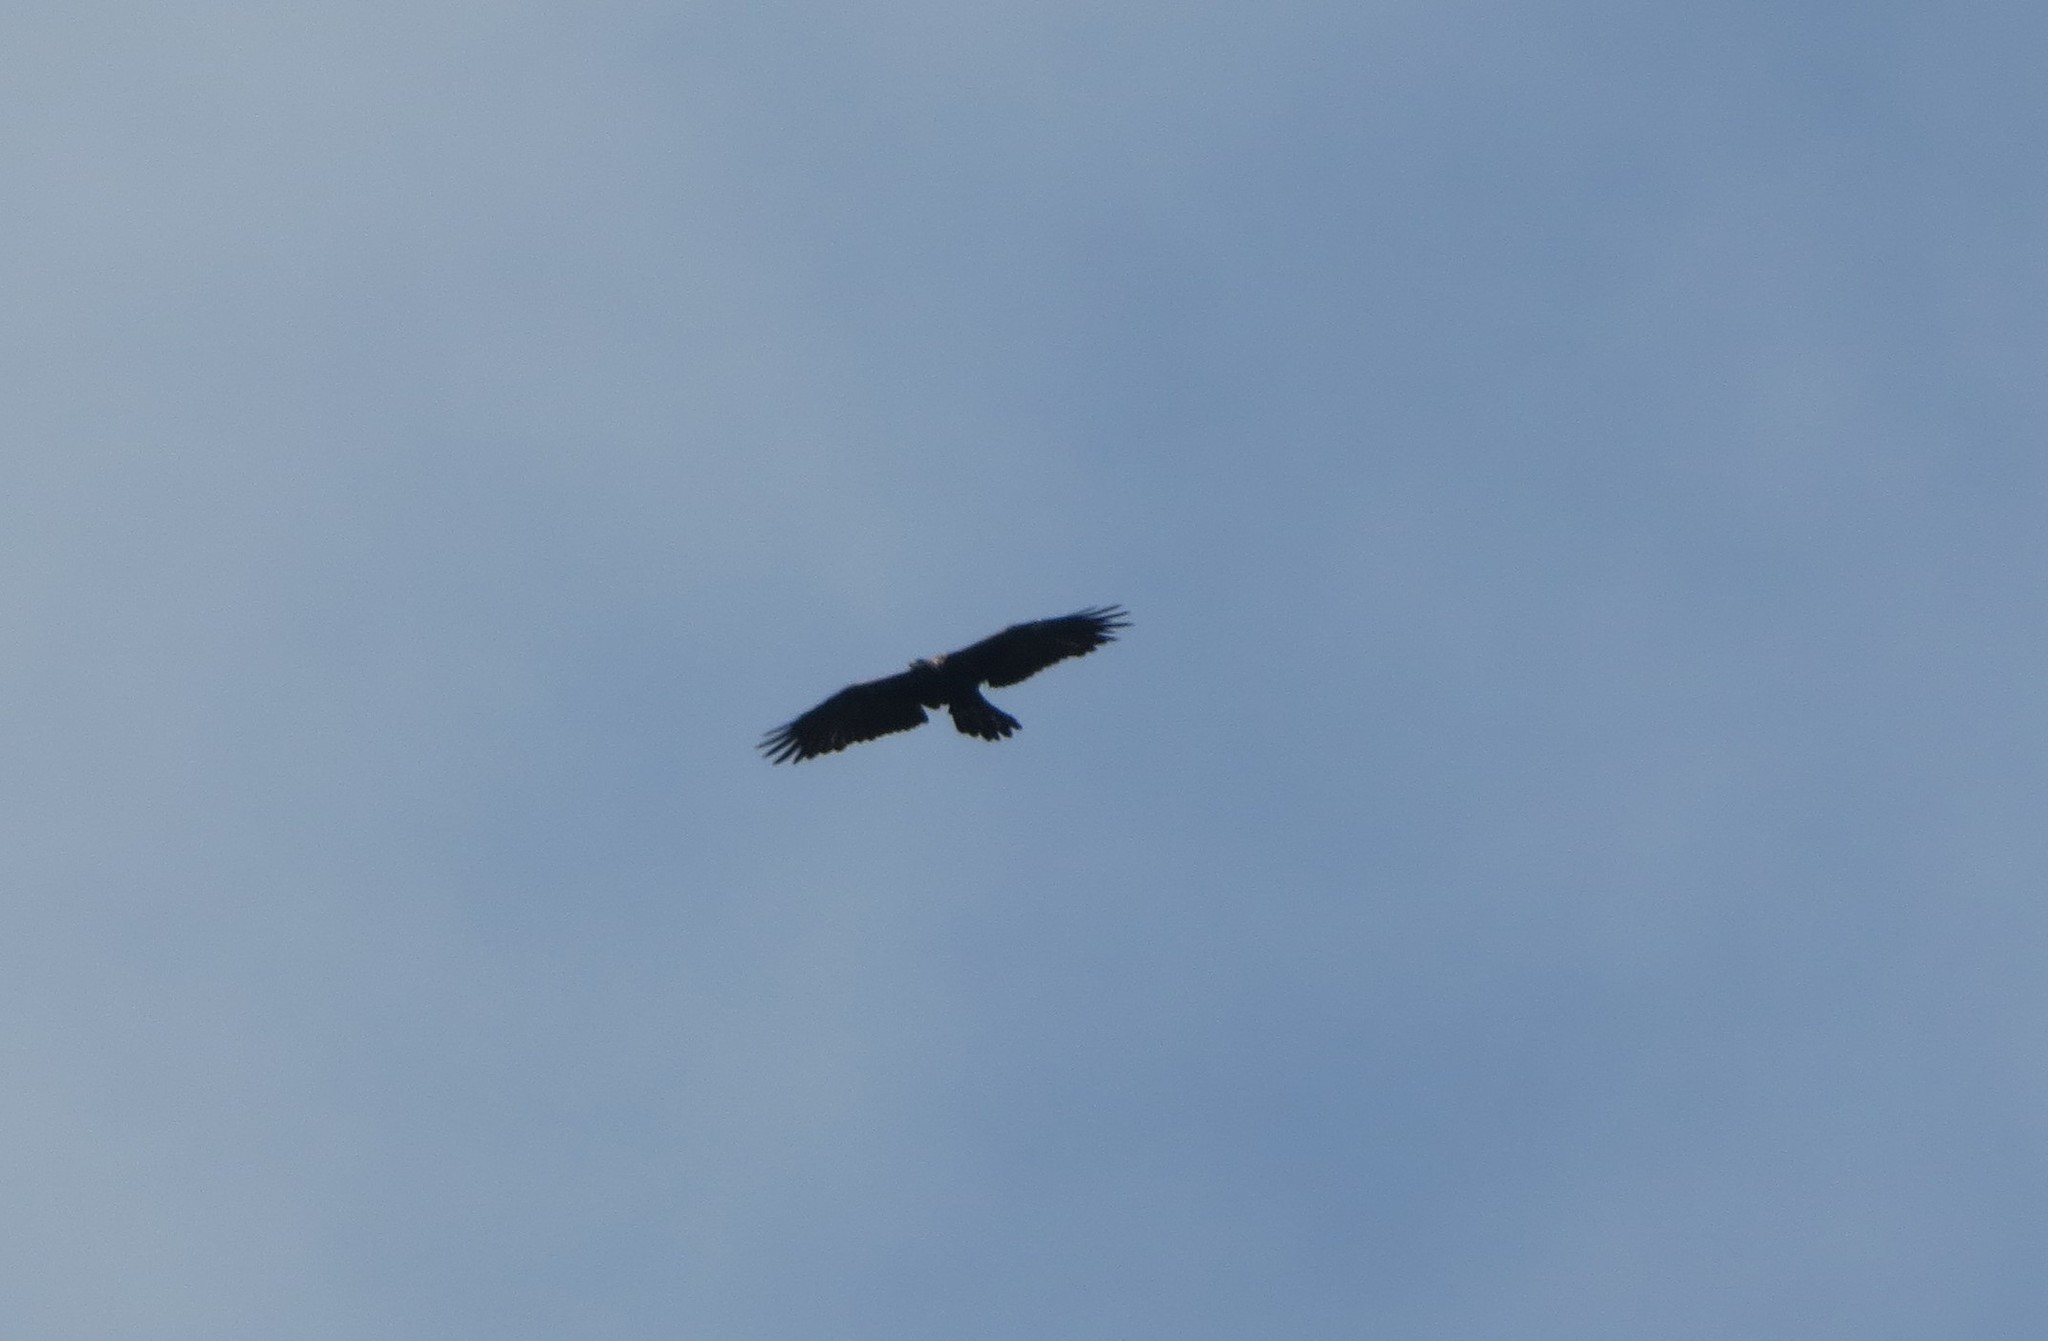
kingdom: Animalia
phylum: Chordata
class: Aves
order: Accipitriformes
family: Accipitridae
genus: Pernis
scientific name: Pernis apivorus
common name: European honey buzzard
